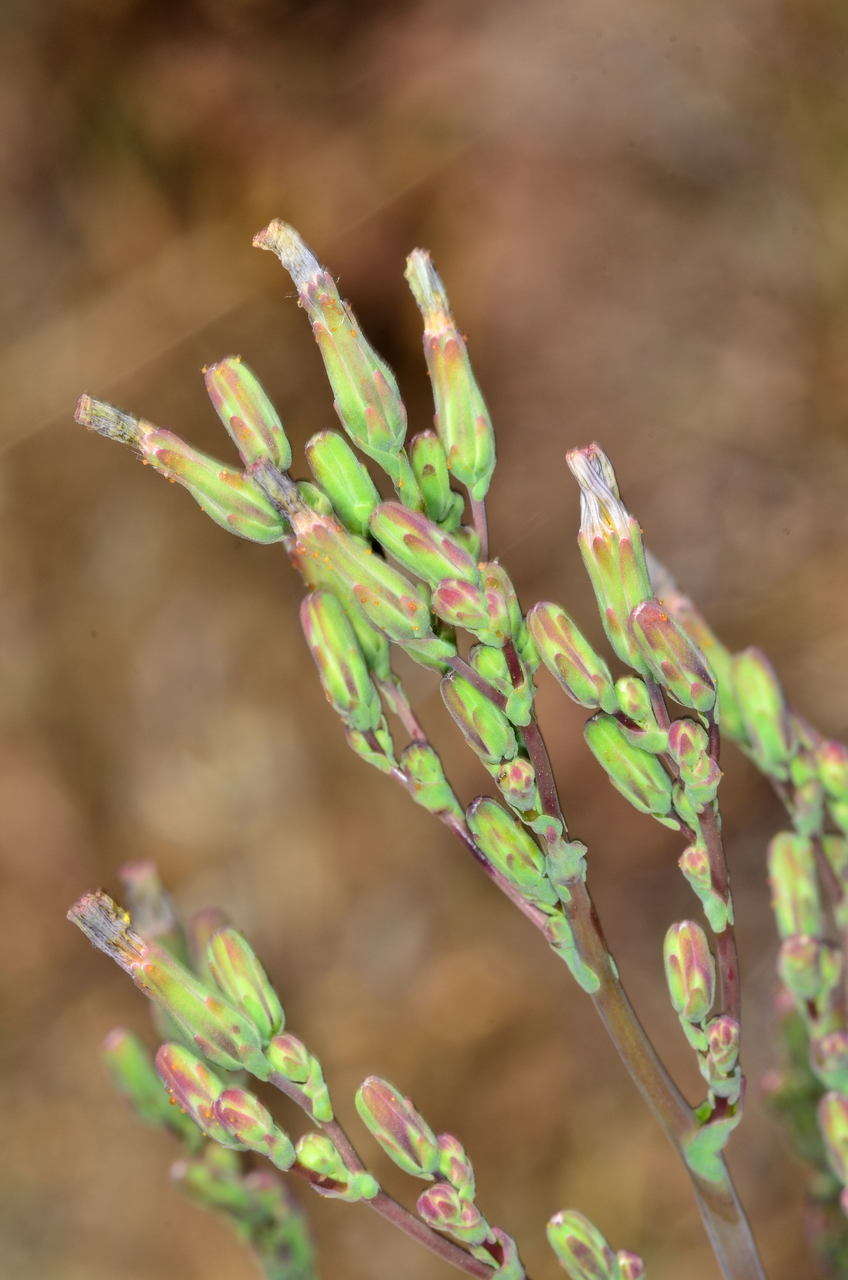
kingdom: Plantae
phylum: Tracheophyta
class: Magnoliopsida
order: Asterales
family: Asteraceae
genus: Lactuca
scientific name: Lactuca serriola
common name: Prickly lettuce
